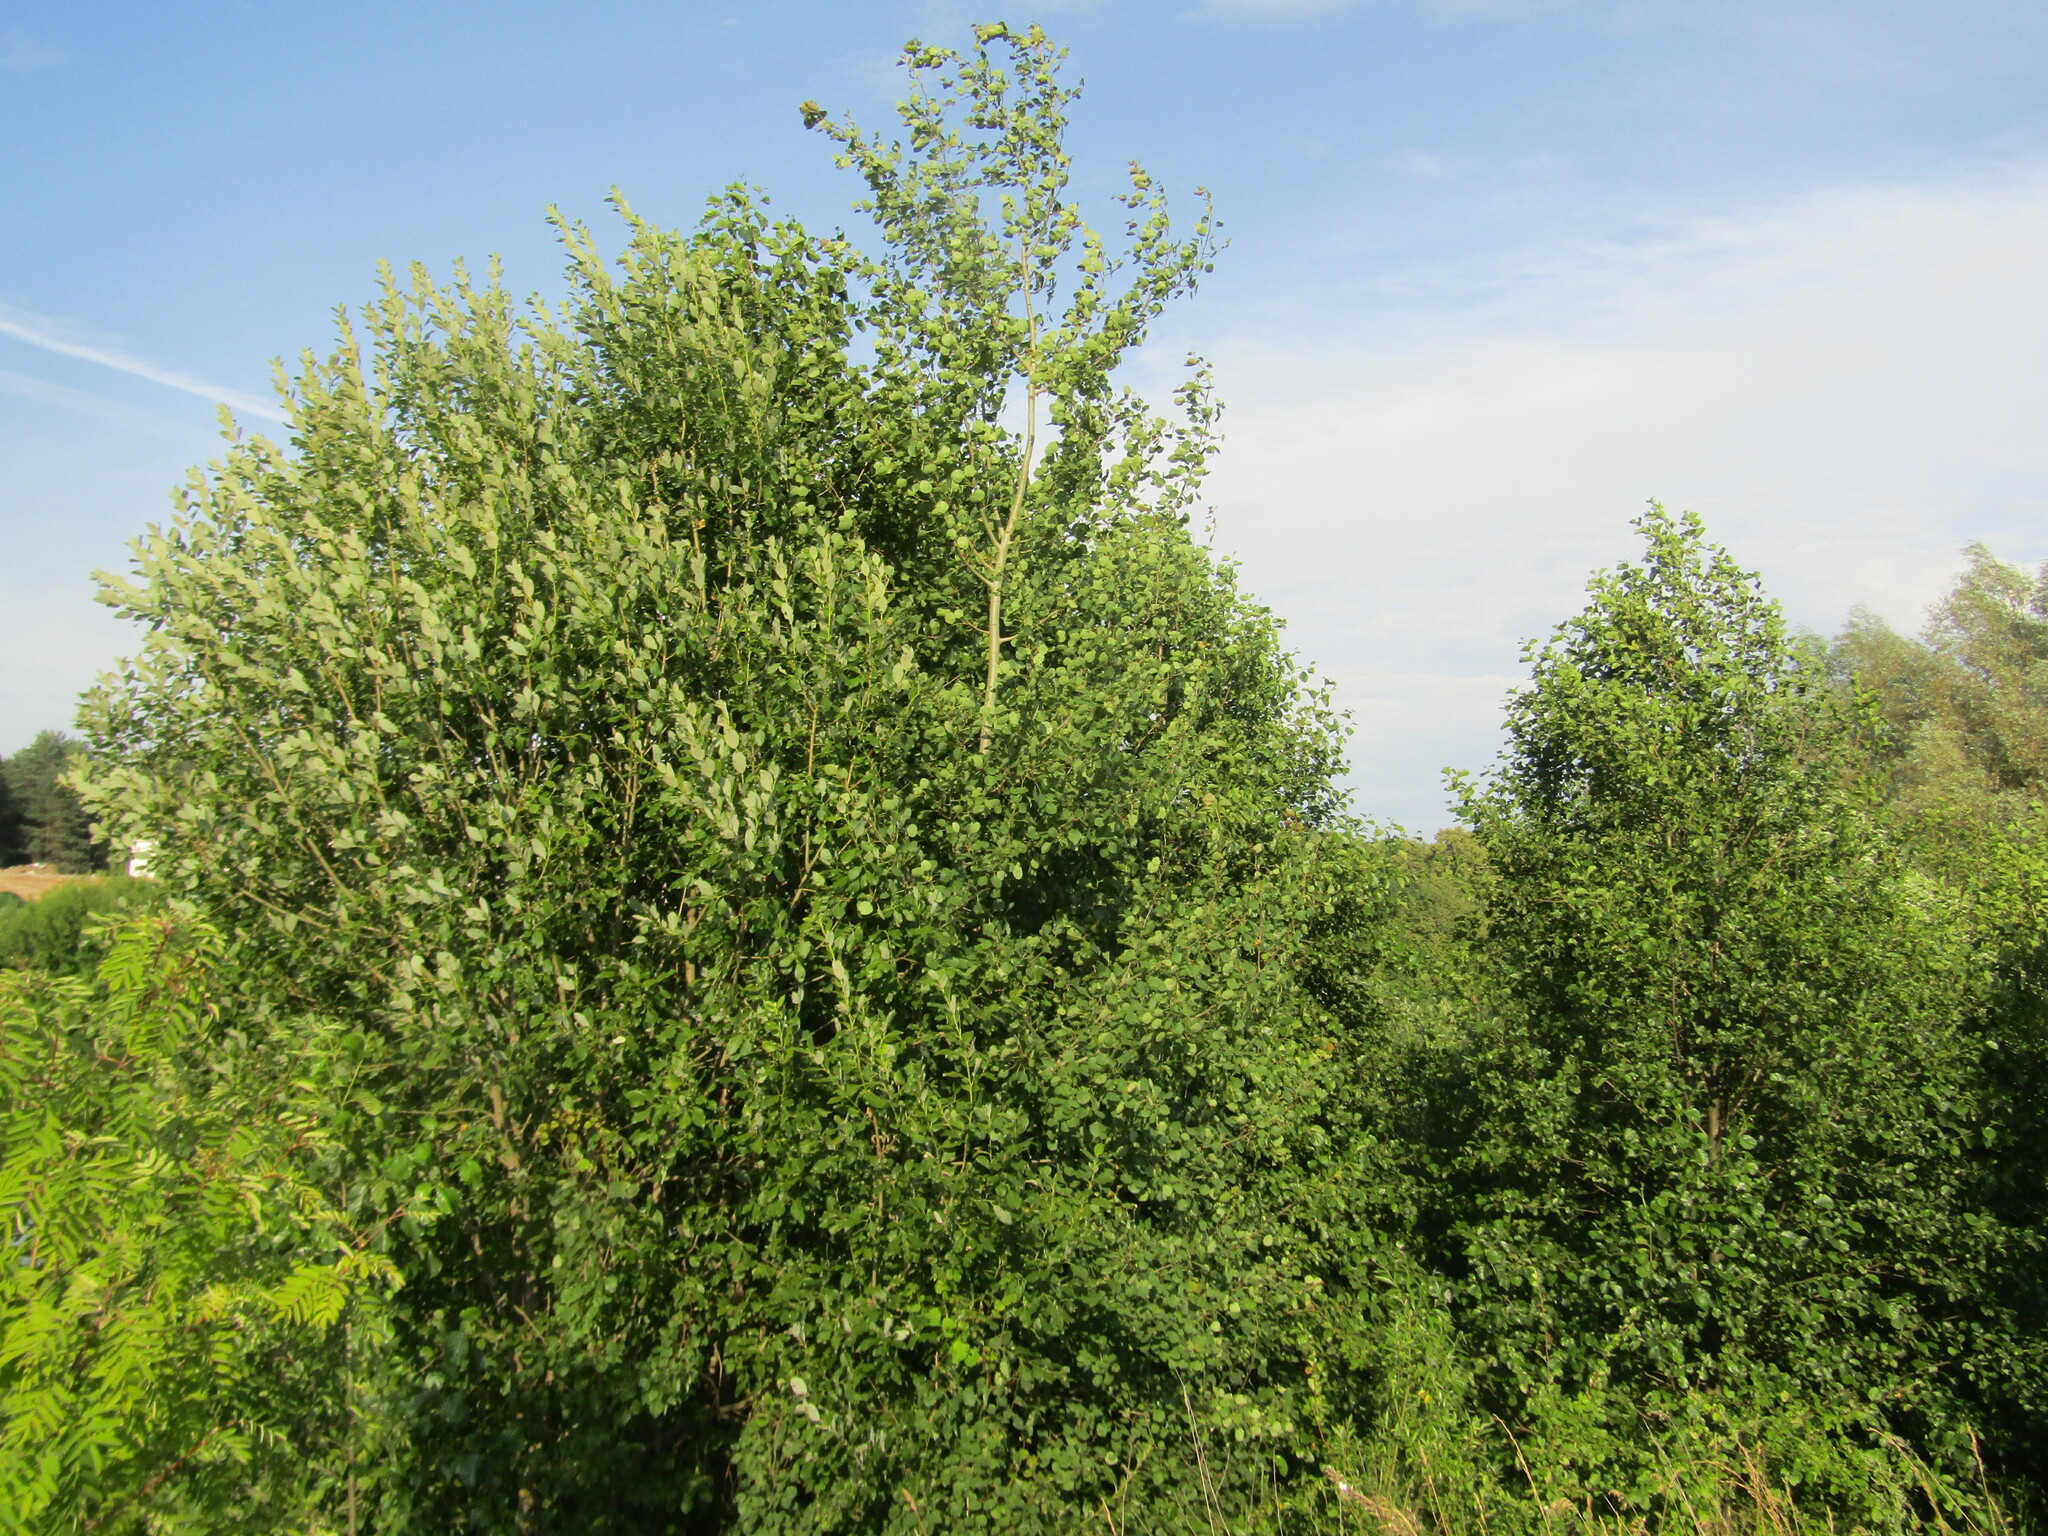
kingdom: Plantae
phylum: Tracheophyta
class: Magnoliopsida
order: Malpighiales
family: Salicaceae
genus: Populus
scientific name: Populus tremula
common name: European aspen
